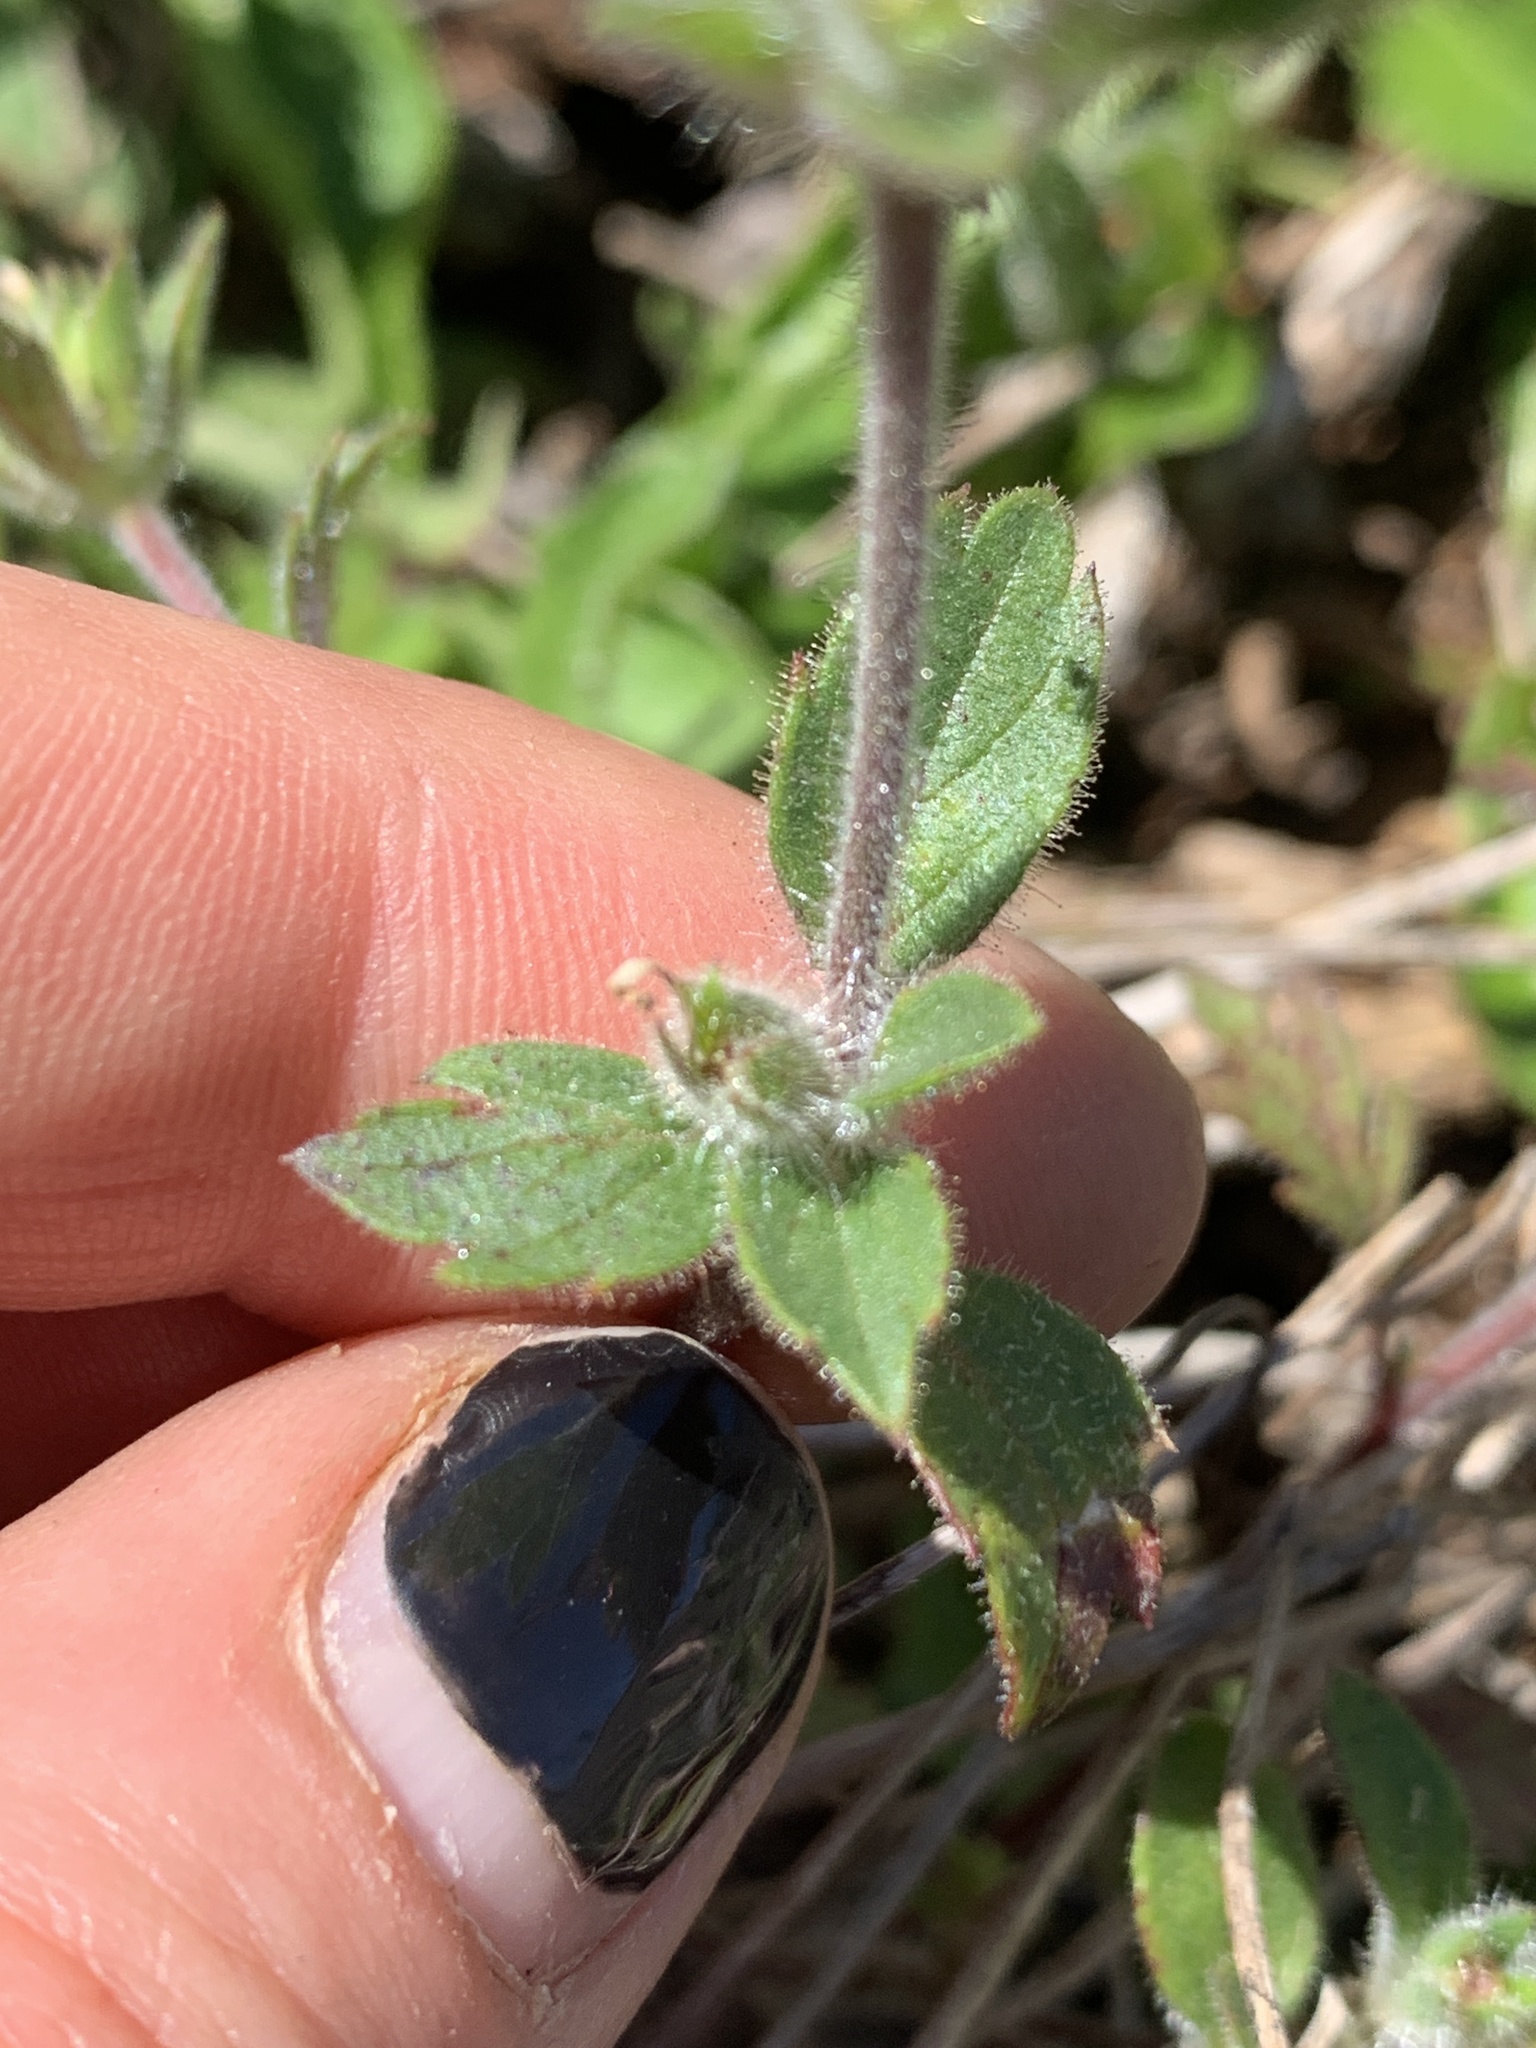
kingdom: Plantae
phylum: Tracheophyta
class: Magnoliopsida
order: Ericales
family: Polemoniaceae
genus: Collomia
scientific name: Collomia heterophylla
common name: Variable-leaved collomia
